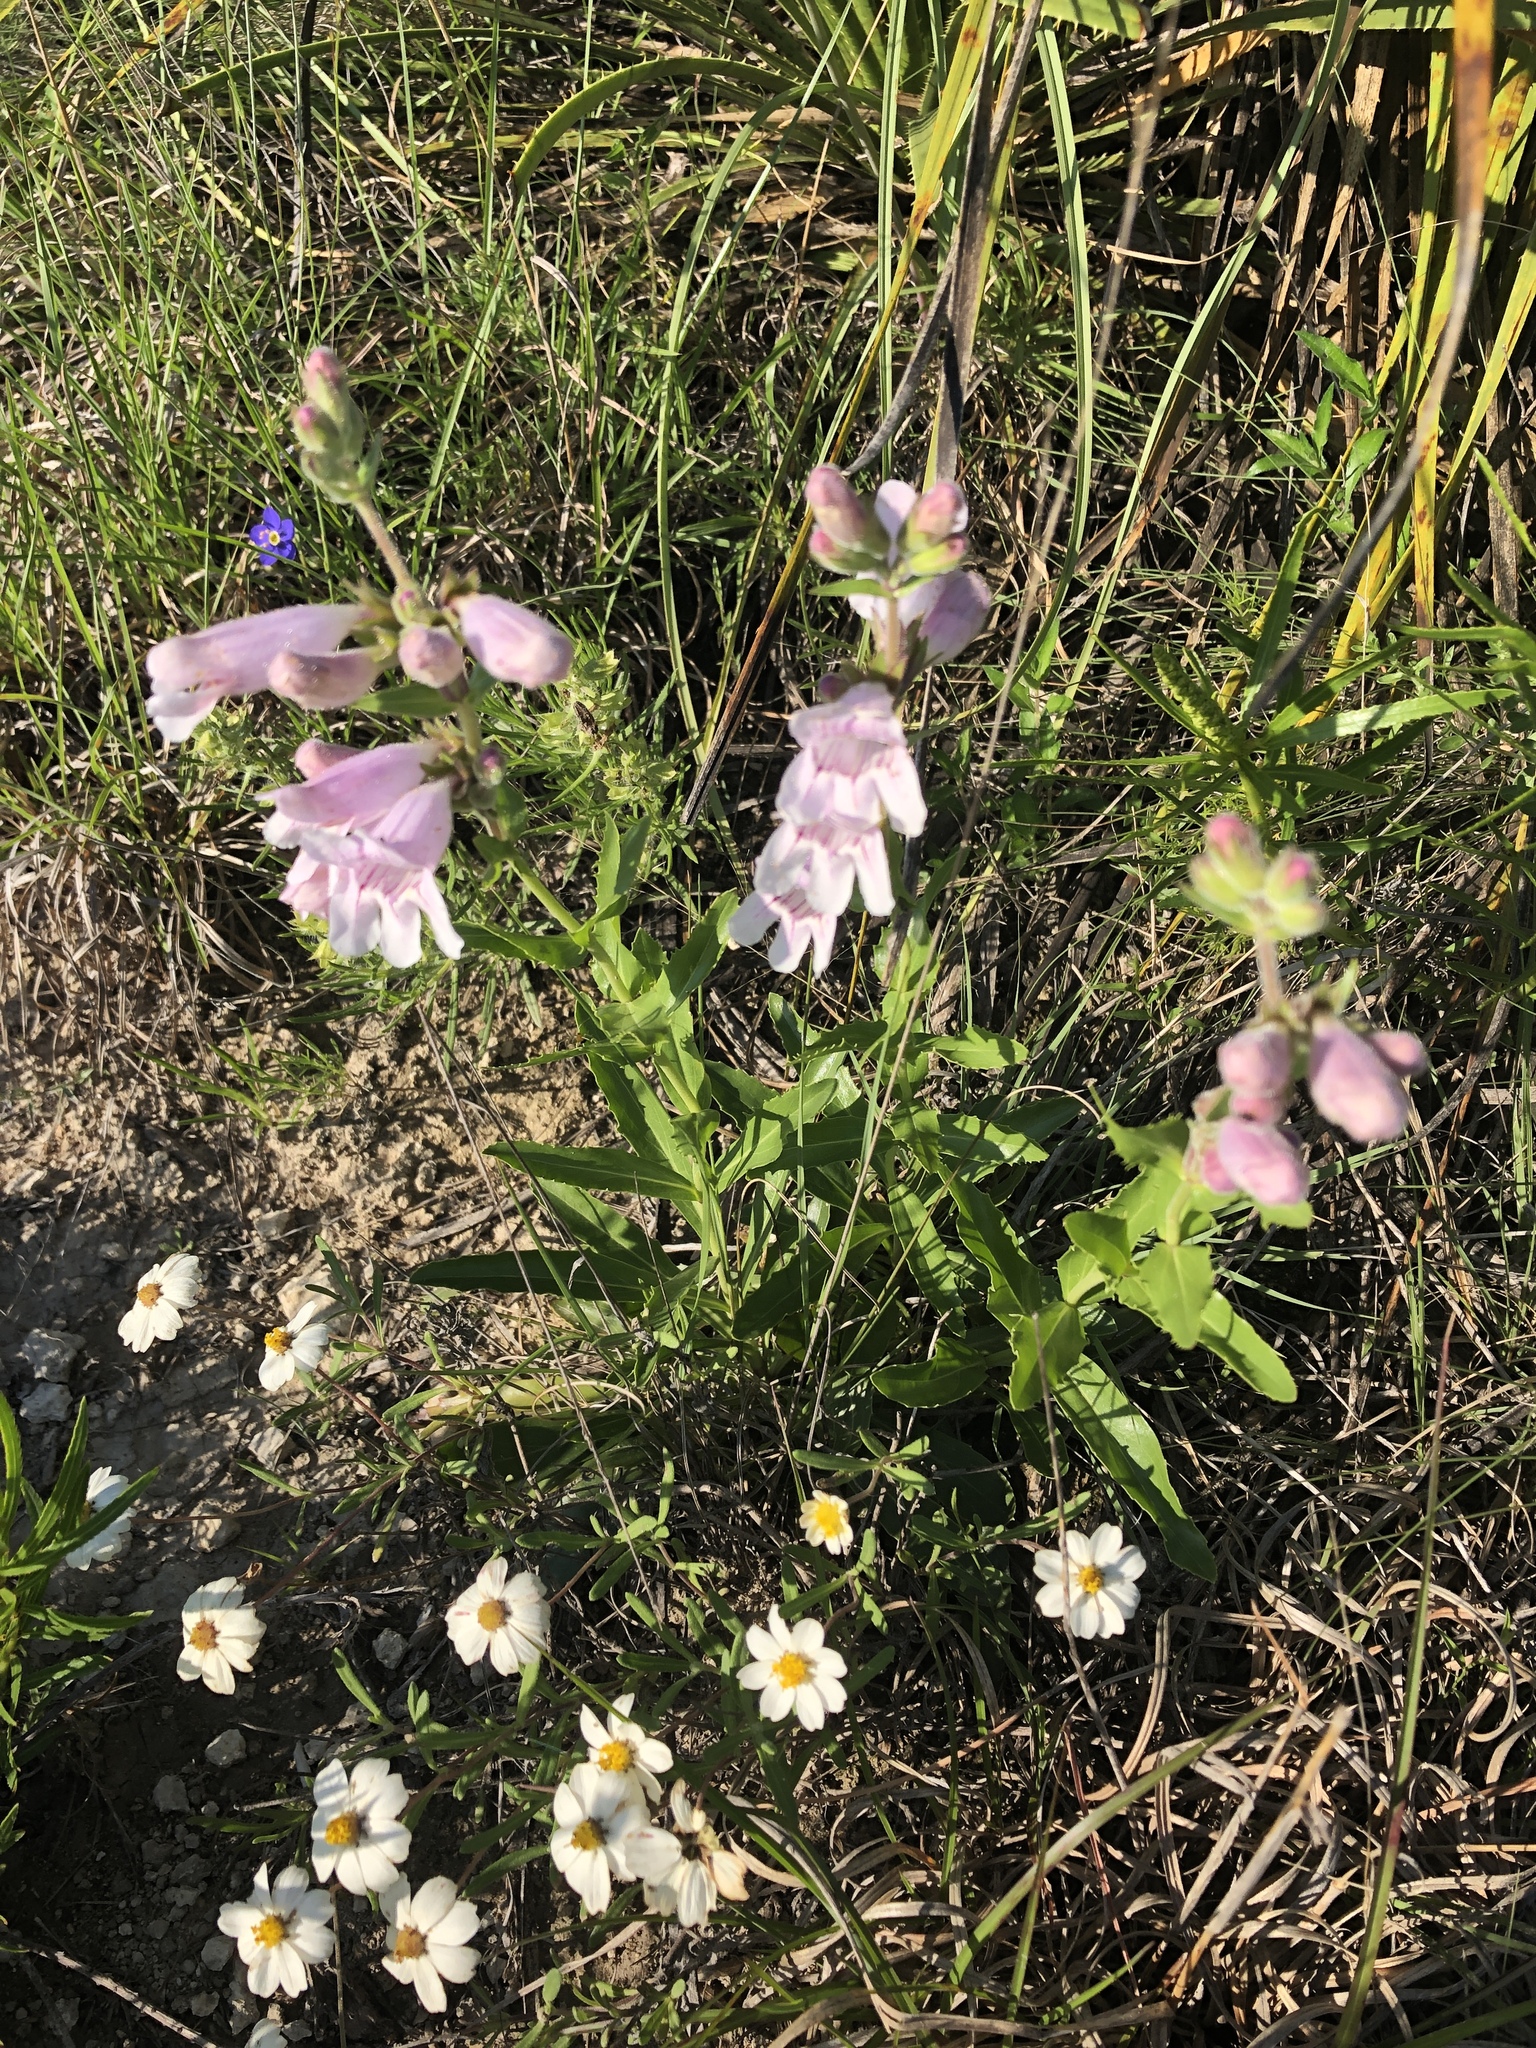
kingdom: Plantae
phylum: Tracheophyta
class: Magnoliopsida
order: Lamiales
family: Plantaginaceae
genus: Penstemon
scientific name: Penstemon cobaea
